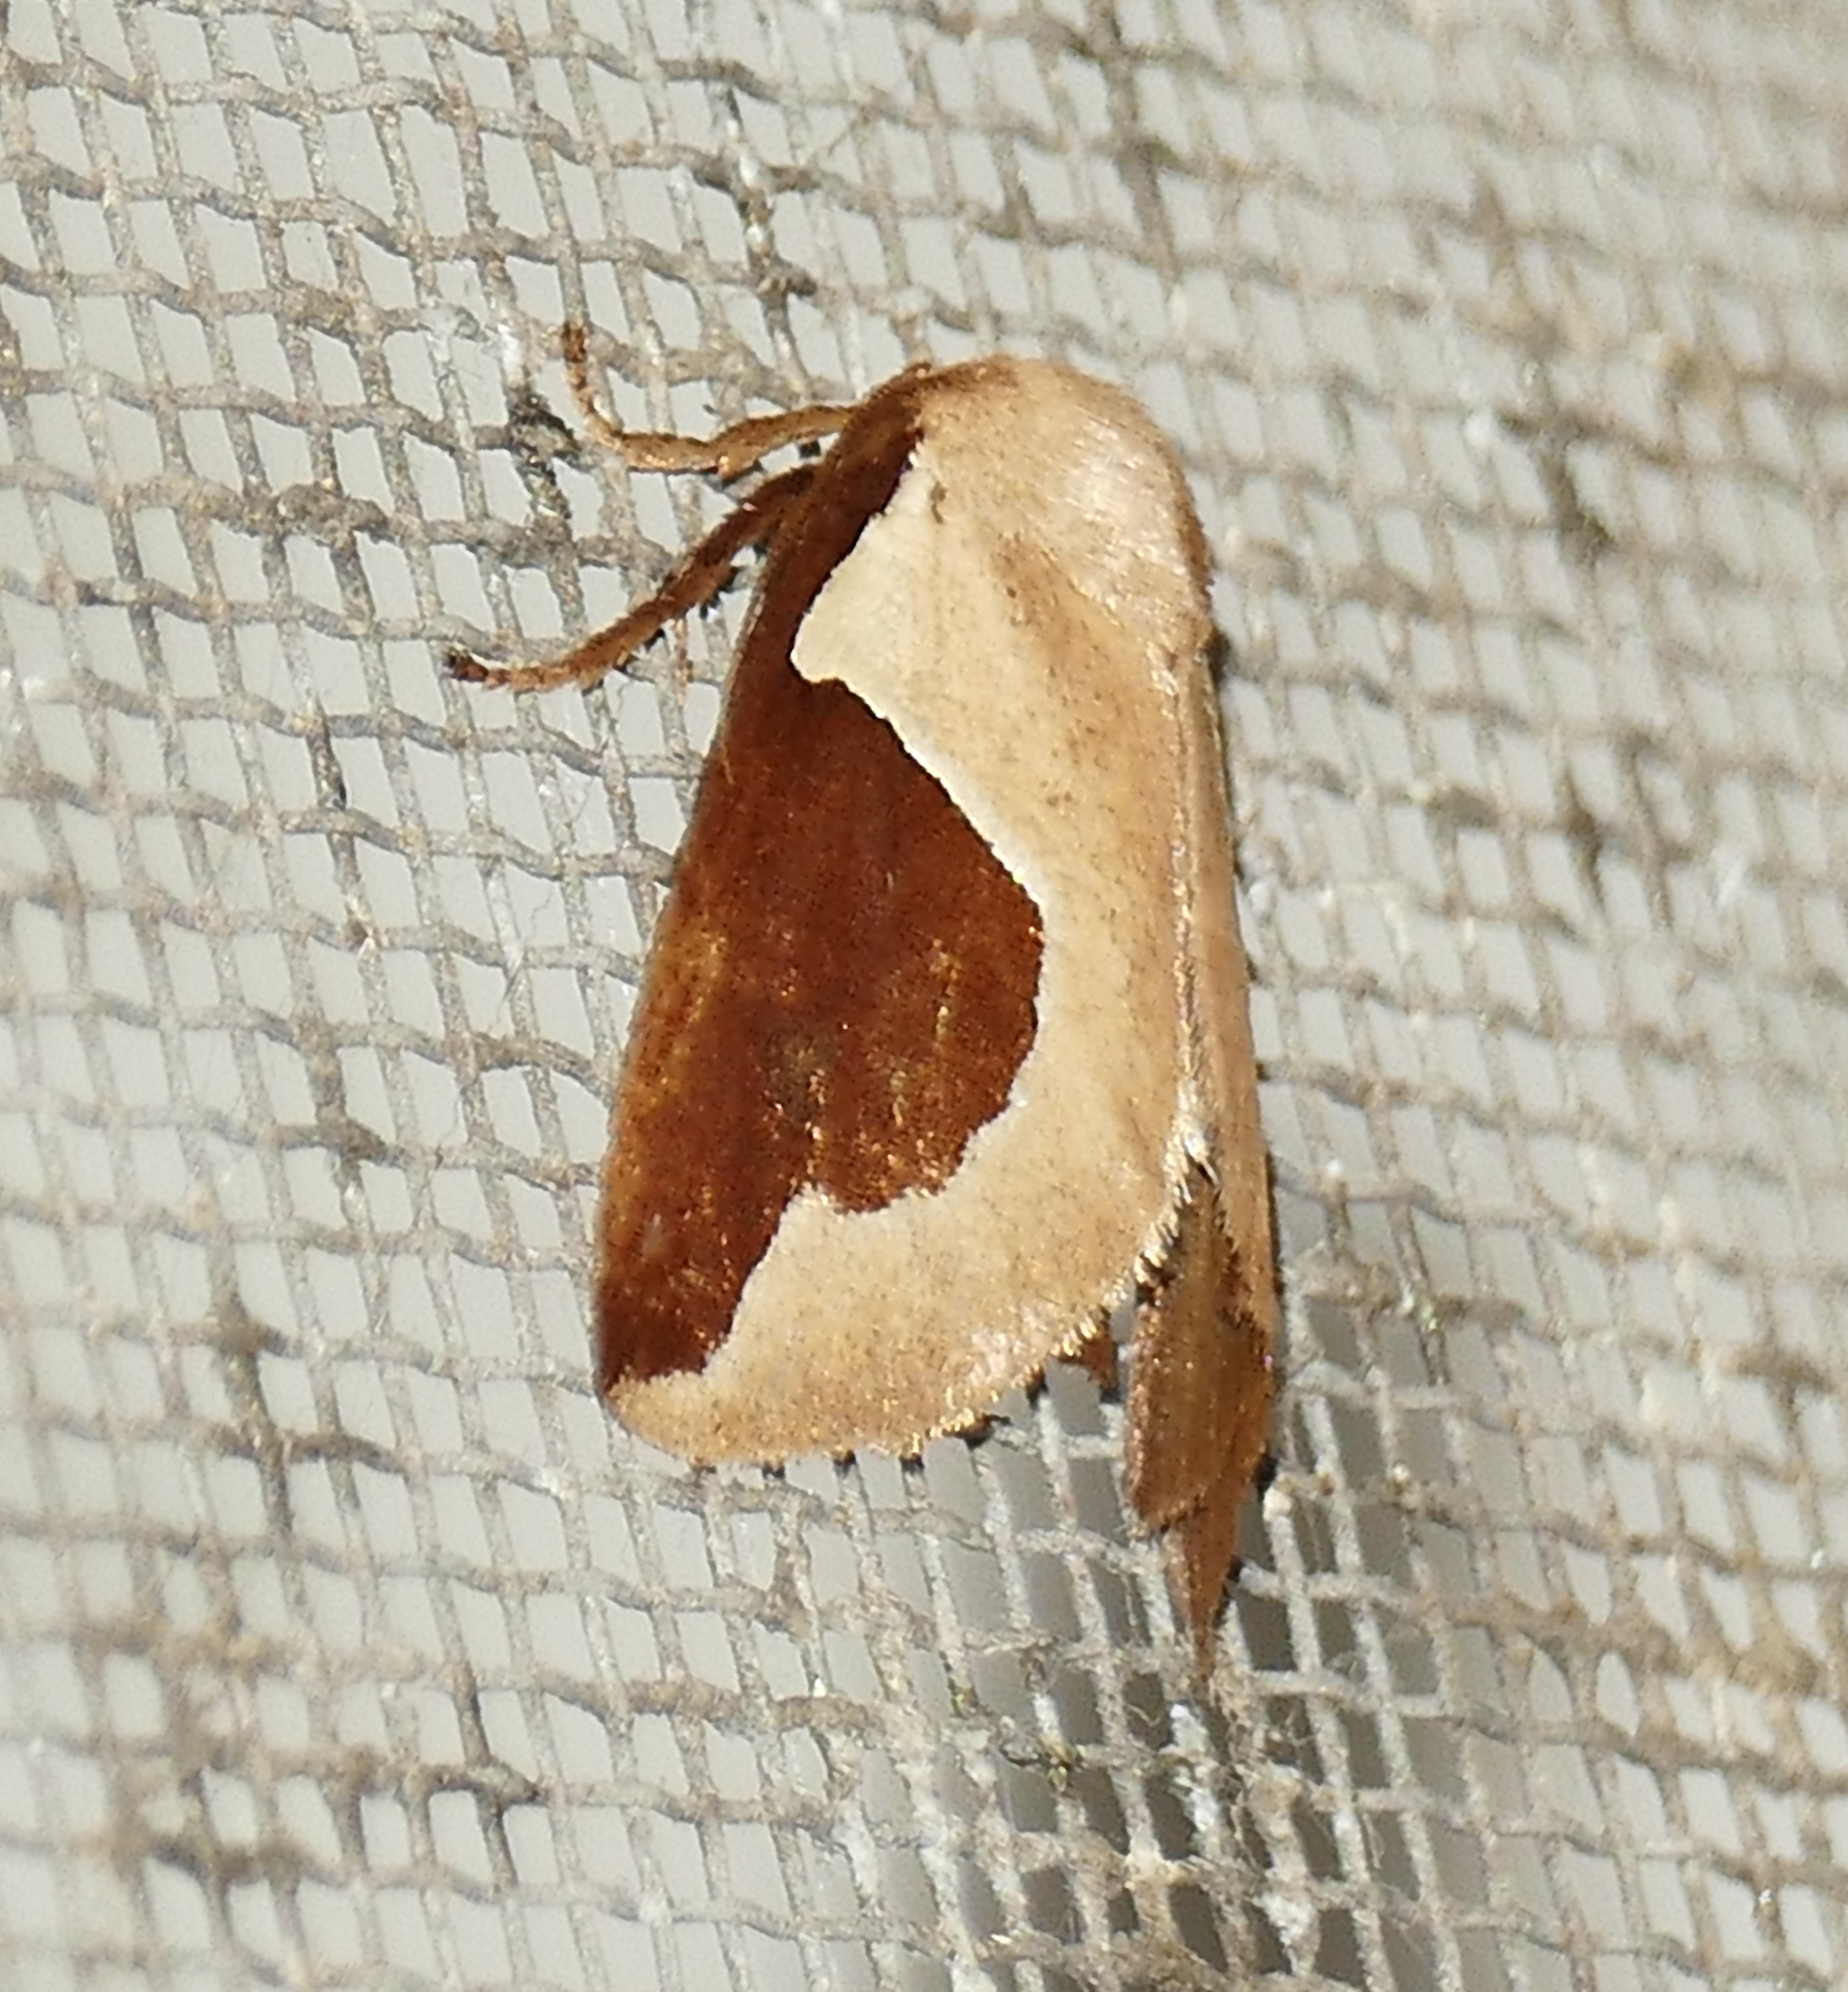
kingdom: Animalia
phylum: Arthropoda
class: Insecta
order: Lepidoptera
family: Limacodidae
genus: Prolimacodes
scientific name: Prolimacodes badia
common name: Skiff moth
